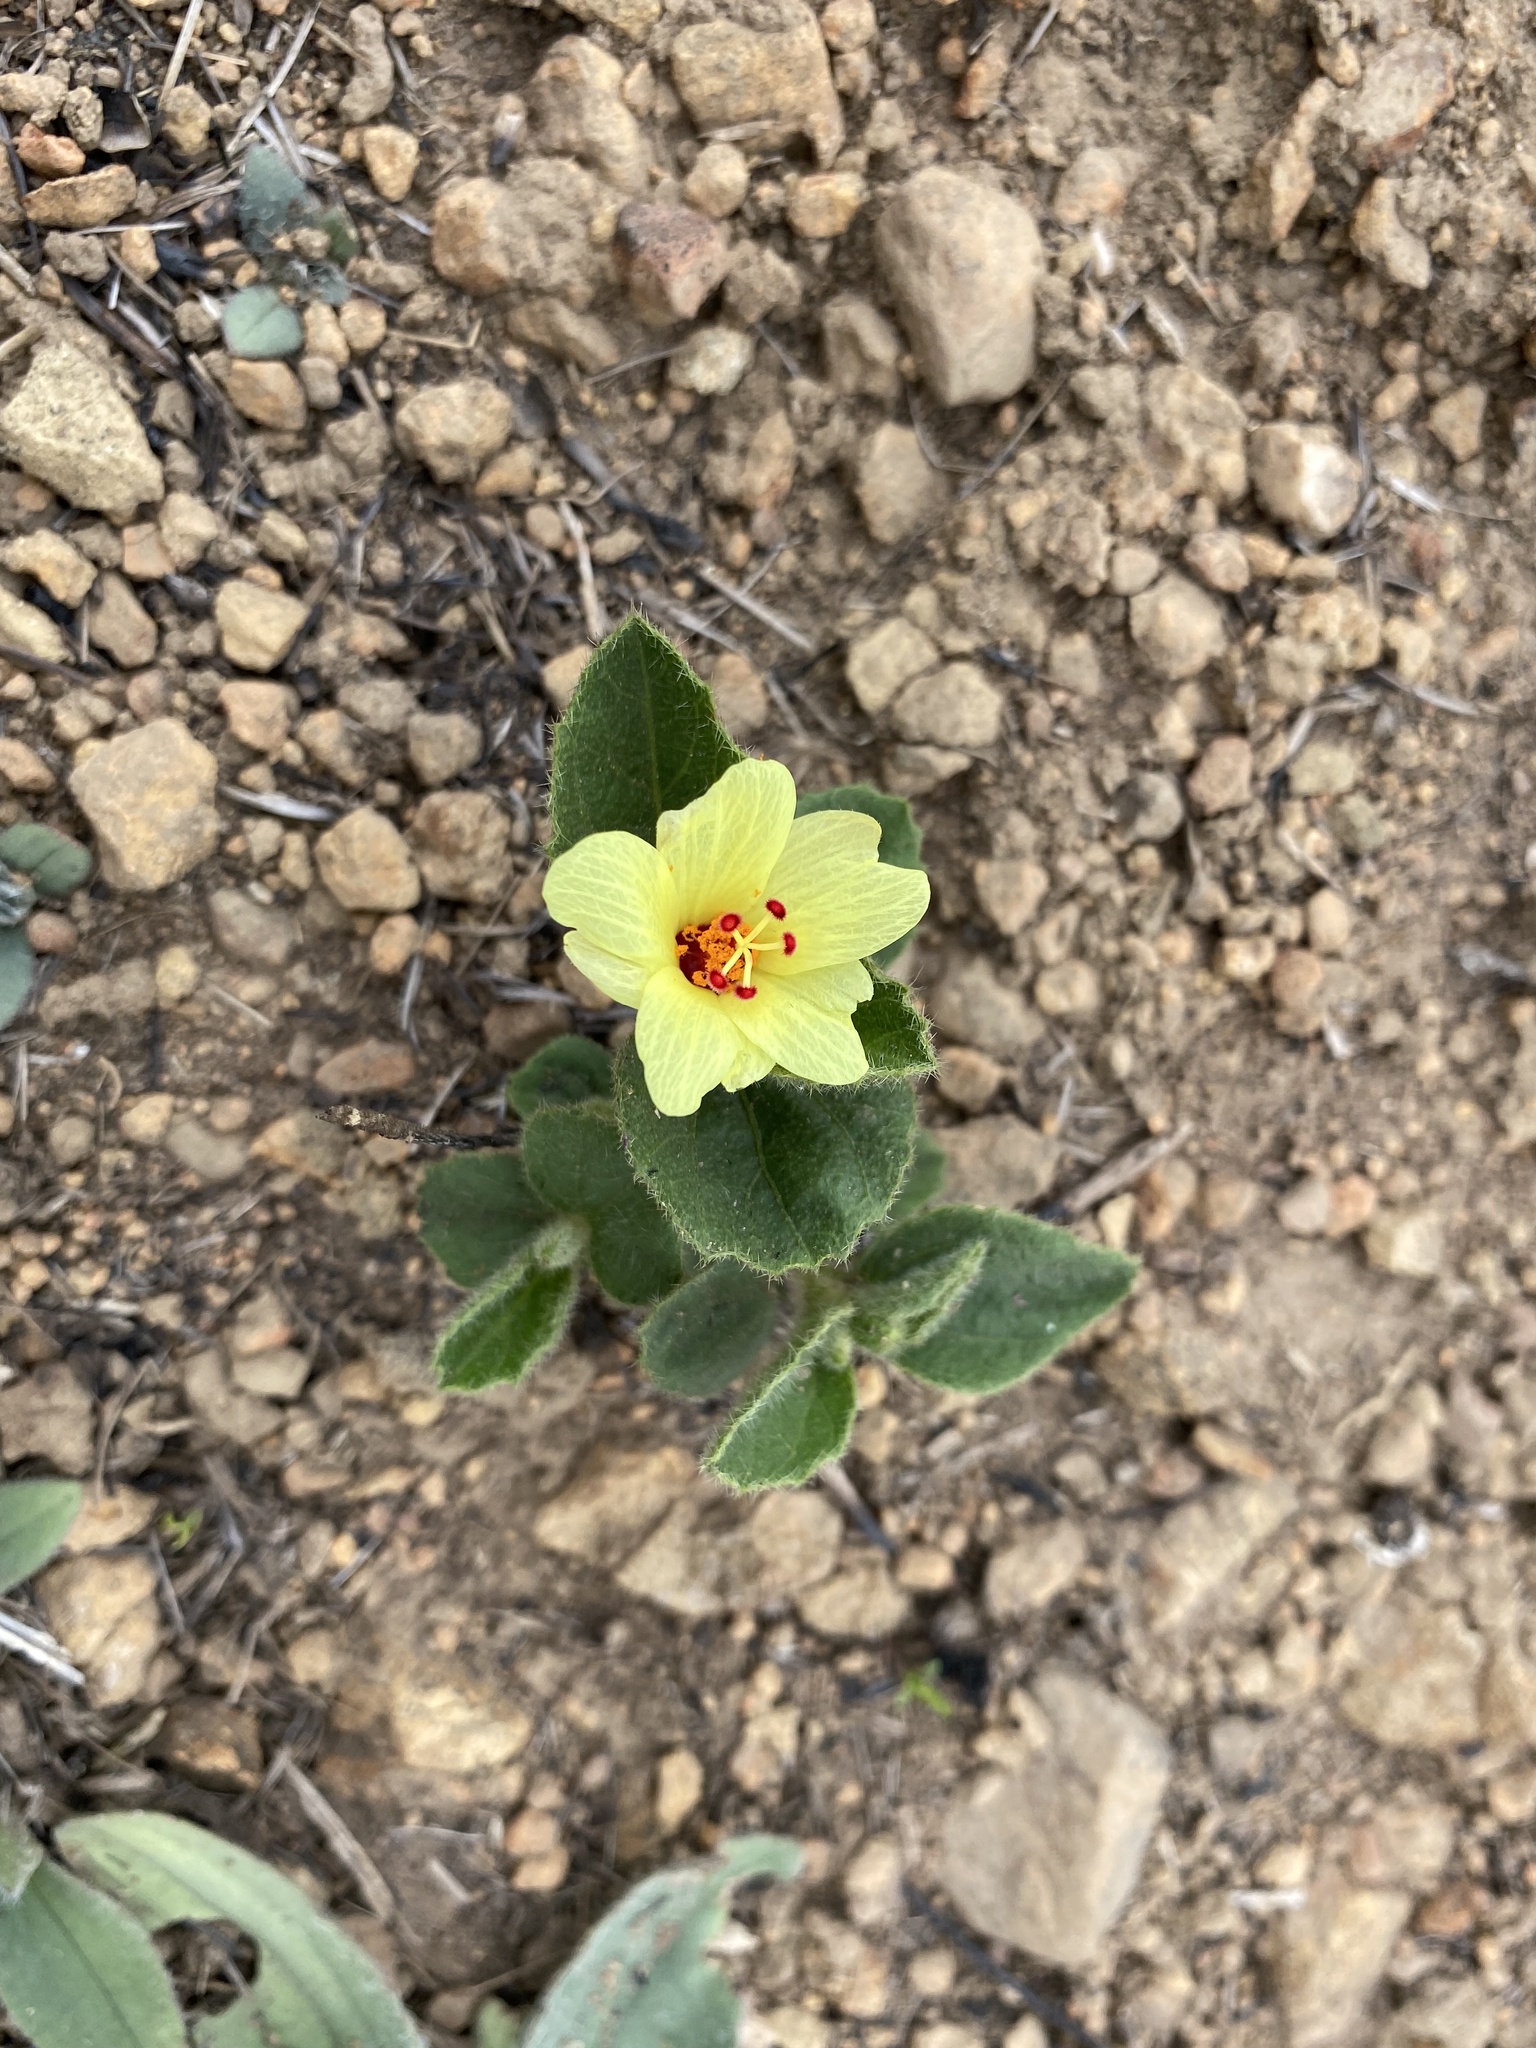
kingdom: Plantae
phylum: Tracheophyta
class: Magnoliopsida
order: Malvales
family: Malvaceae
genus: Hibiscus
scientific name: Hibiscus aethiopicus
